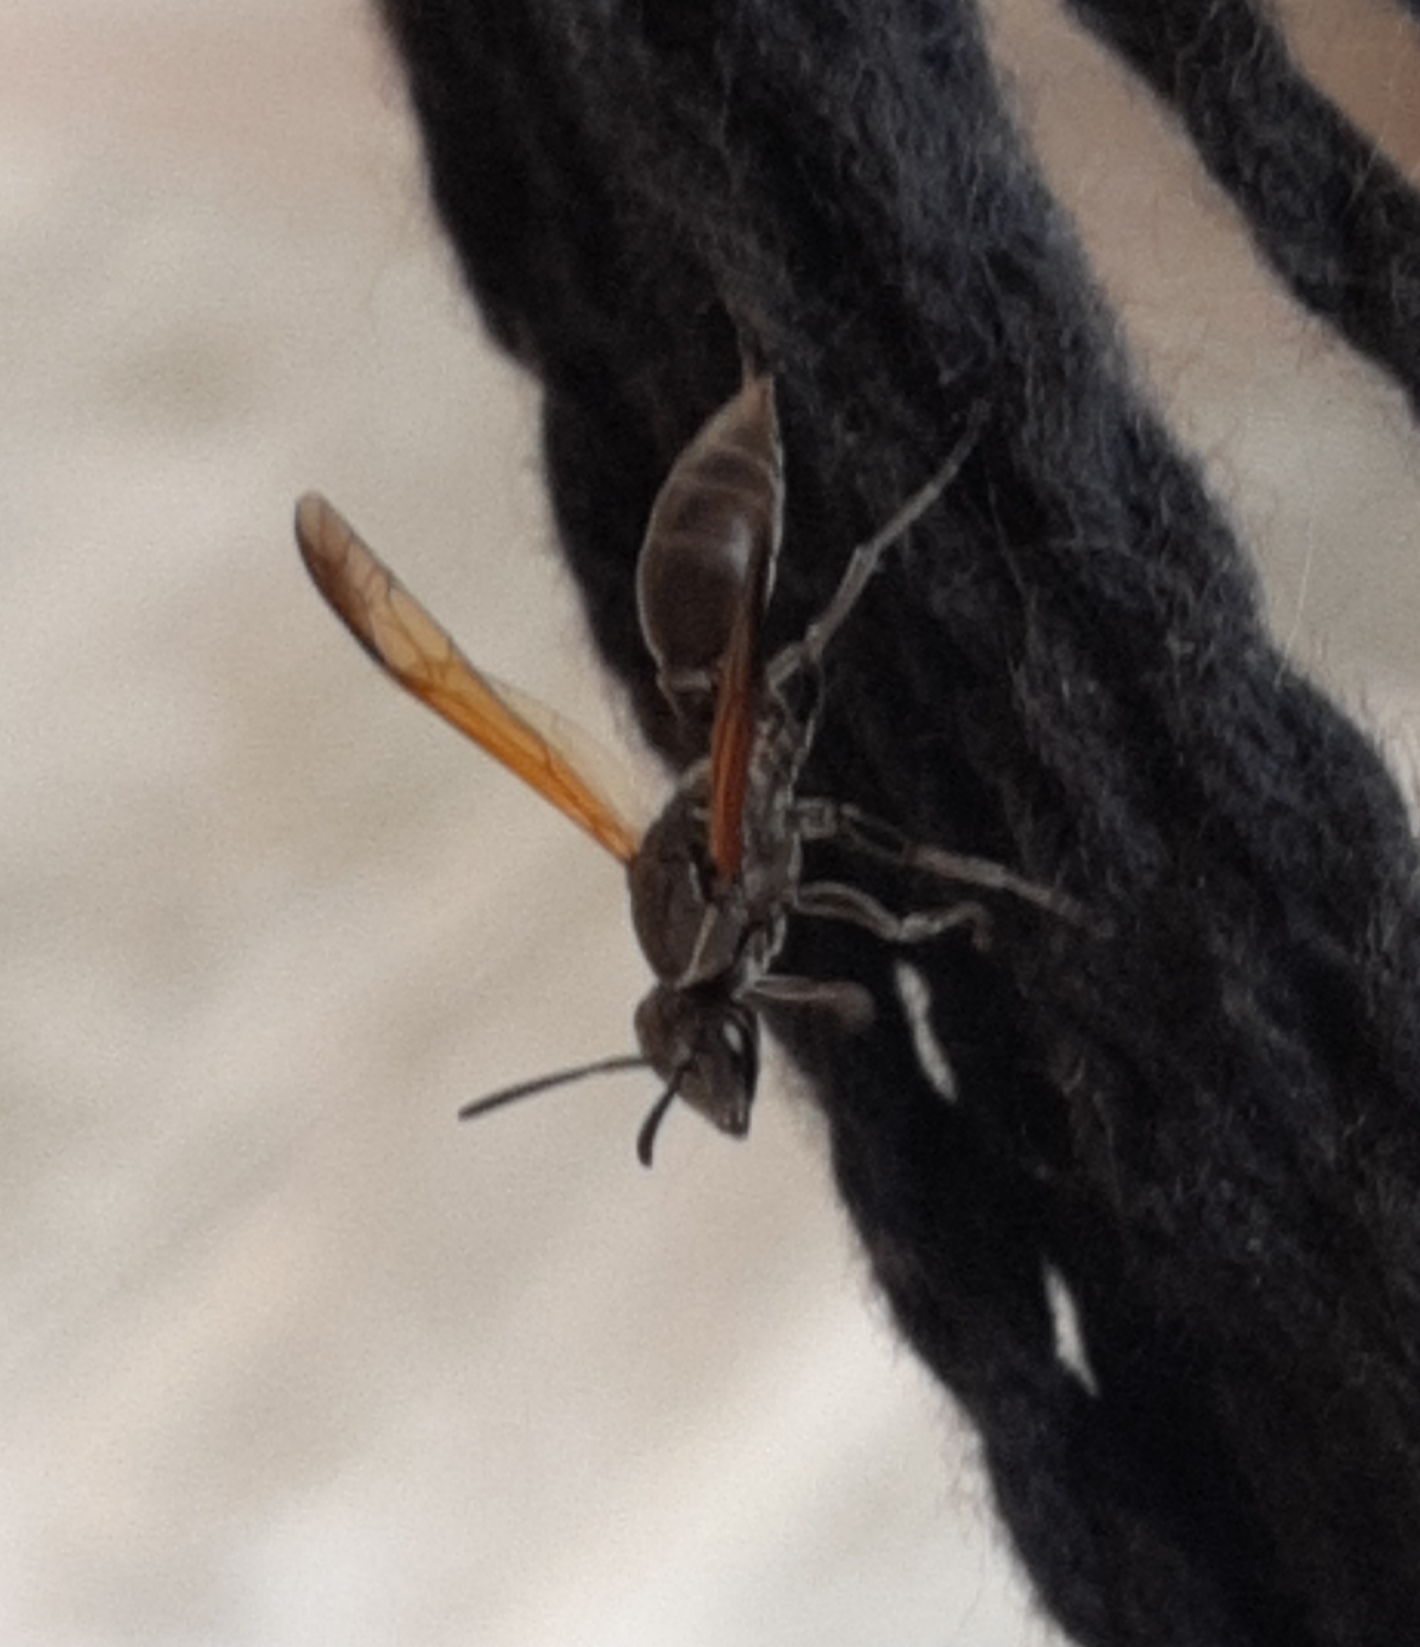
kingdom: Animalia
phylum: Arthropoda
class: Insecta
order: Hymenoptera
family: Eumenidae
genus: Polybia
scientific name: Polybia rejecta
